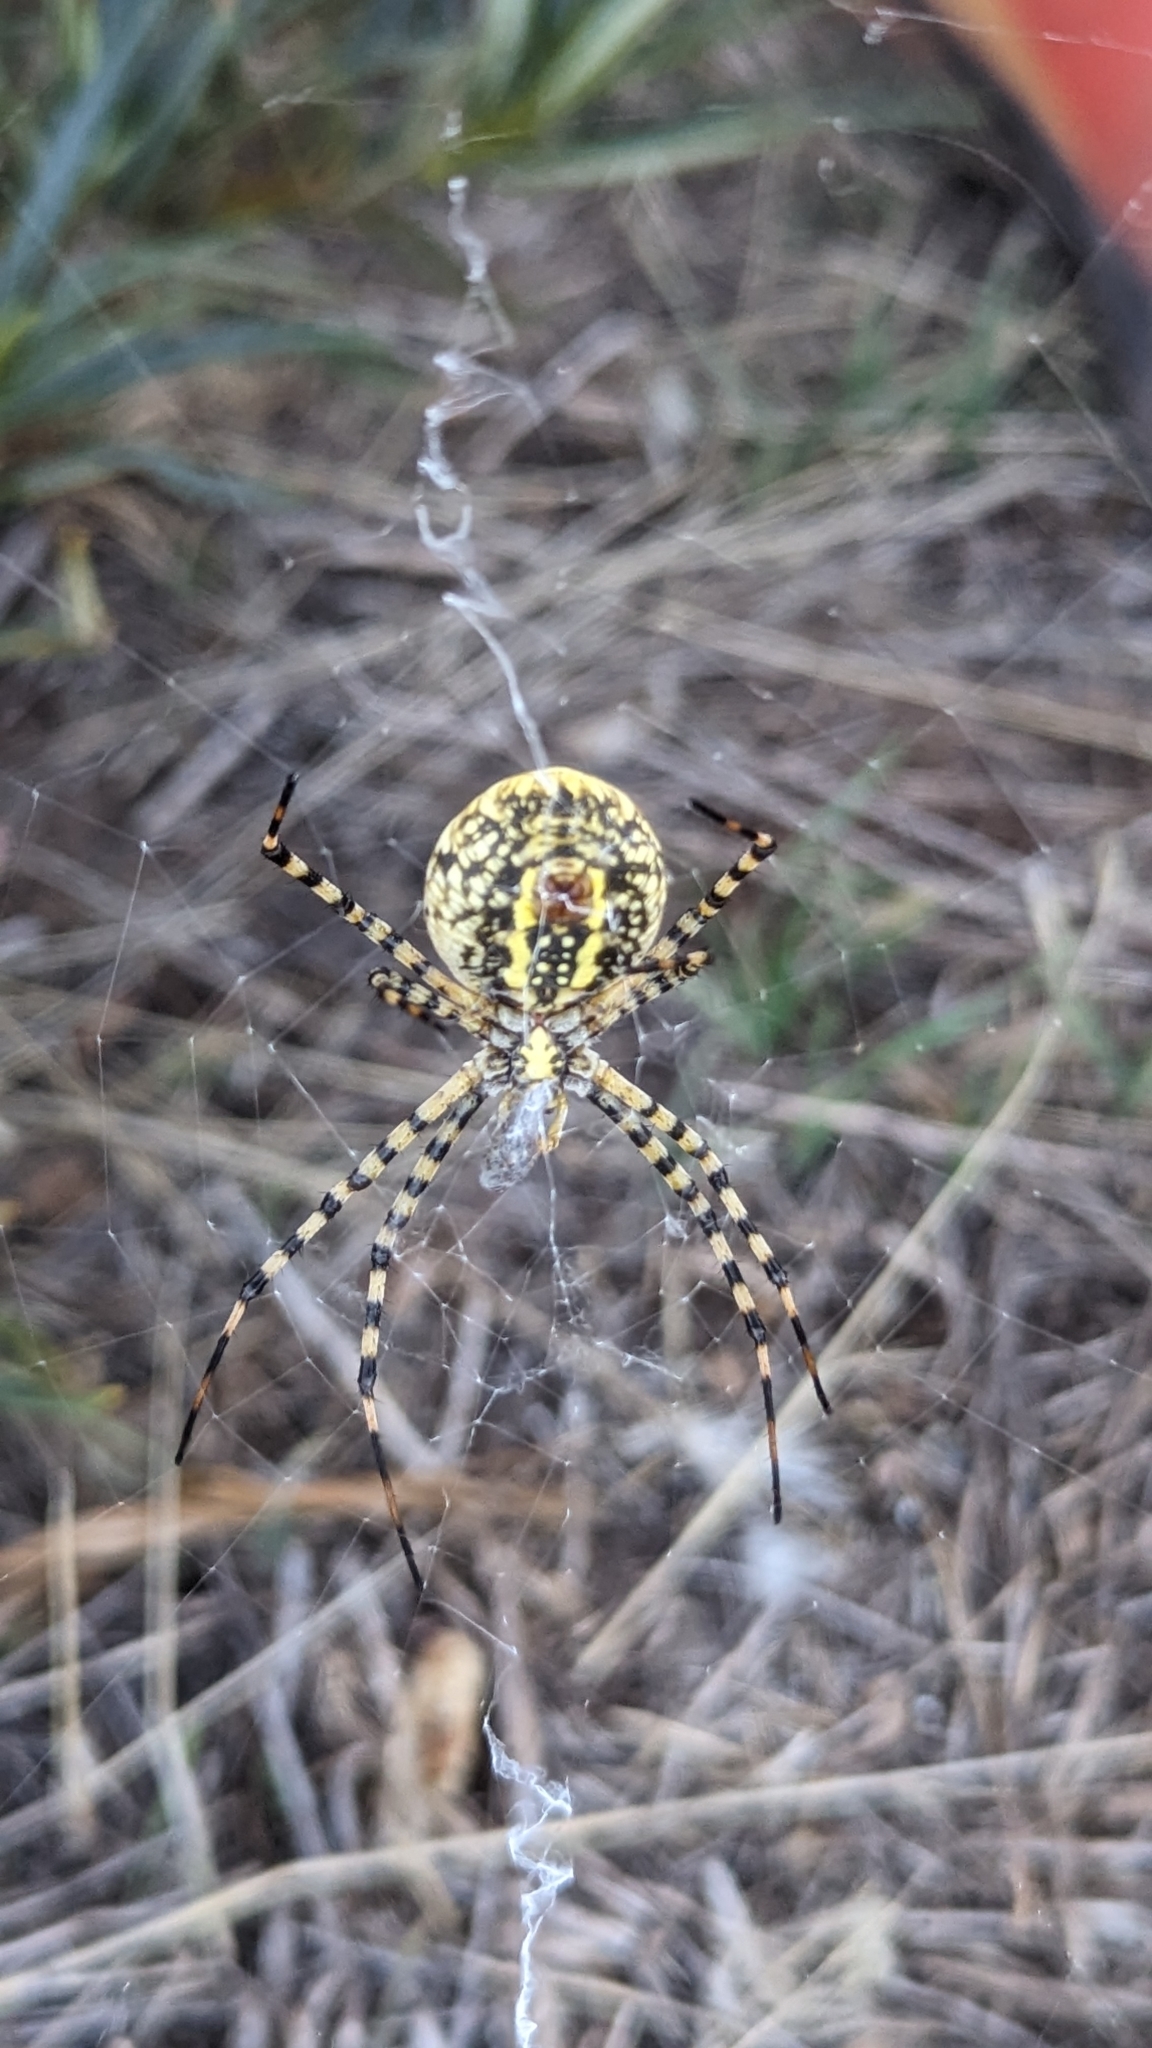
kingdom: Animalia
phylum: Arthropoda
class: Arachnida
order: Araneae
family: Araneidae
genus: Argiope
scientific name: Argiope trifasciata
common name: Banded garden spider
